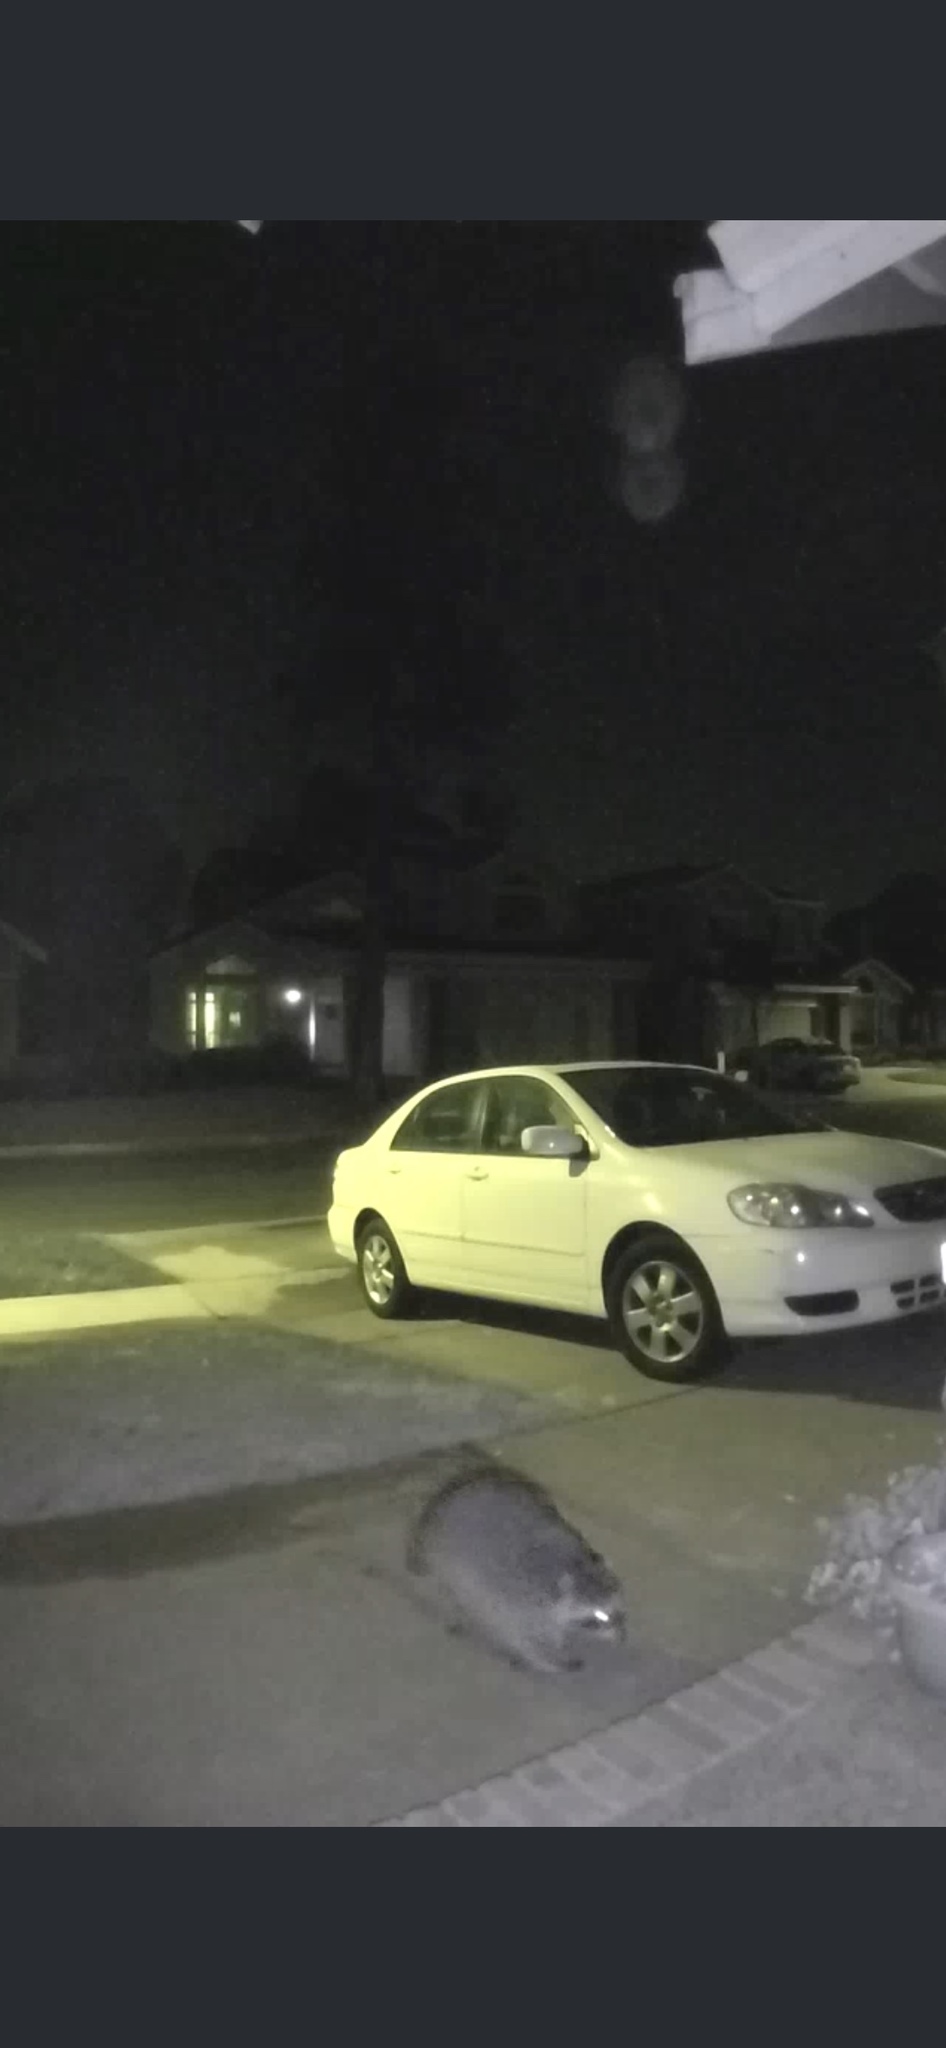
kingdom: Animalia
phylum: Chordata
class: Mammalia
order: Carnivora
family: Procyonidae
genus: Procyon
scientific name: Procyon lotor
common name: Raccoon
